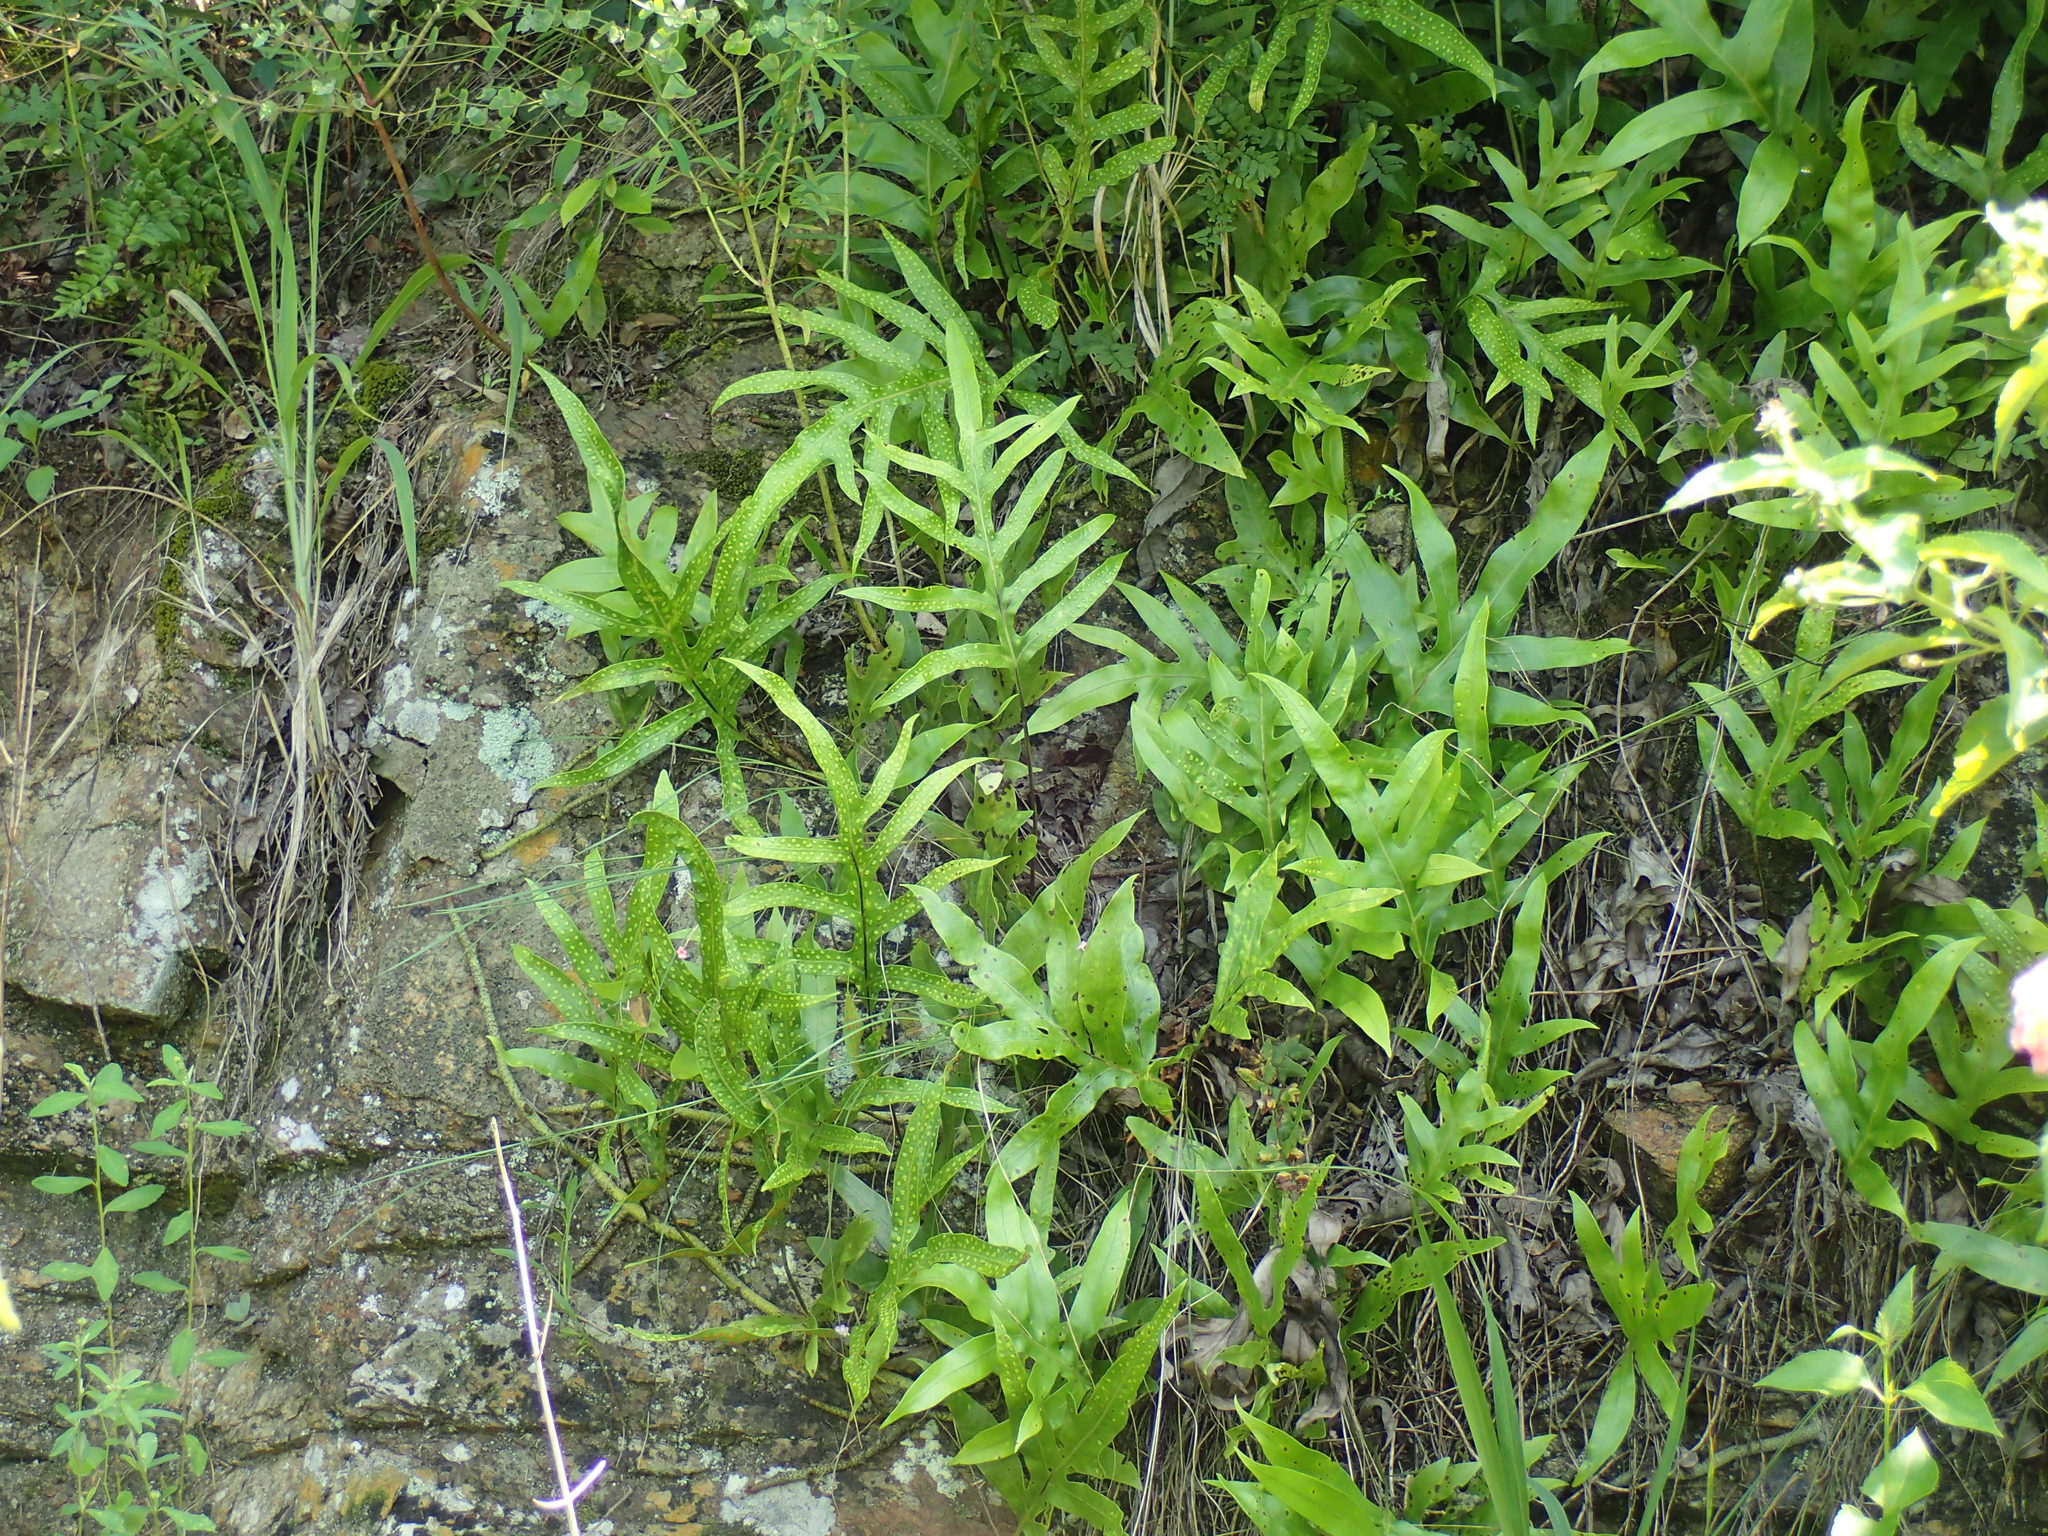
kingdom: Plantae
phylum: Tracheophyta
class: Polypodiopsida
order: Polypodiales
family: Polypodiaceae
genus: Microsorum
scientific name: Microsorum scolopendria
